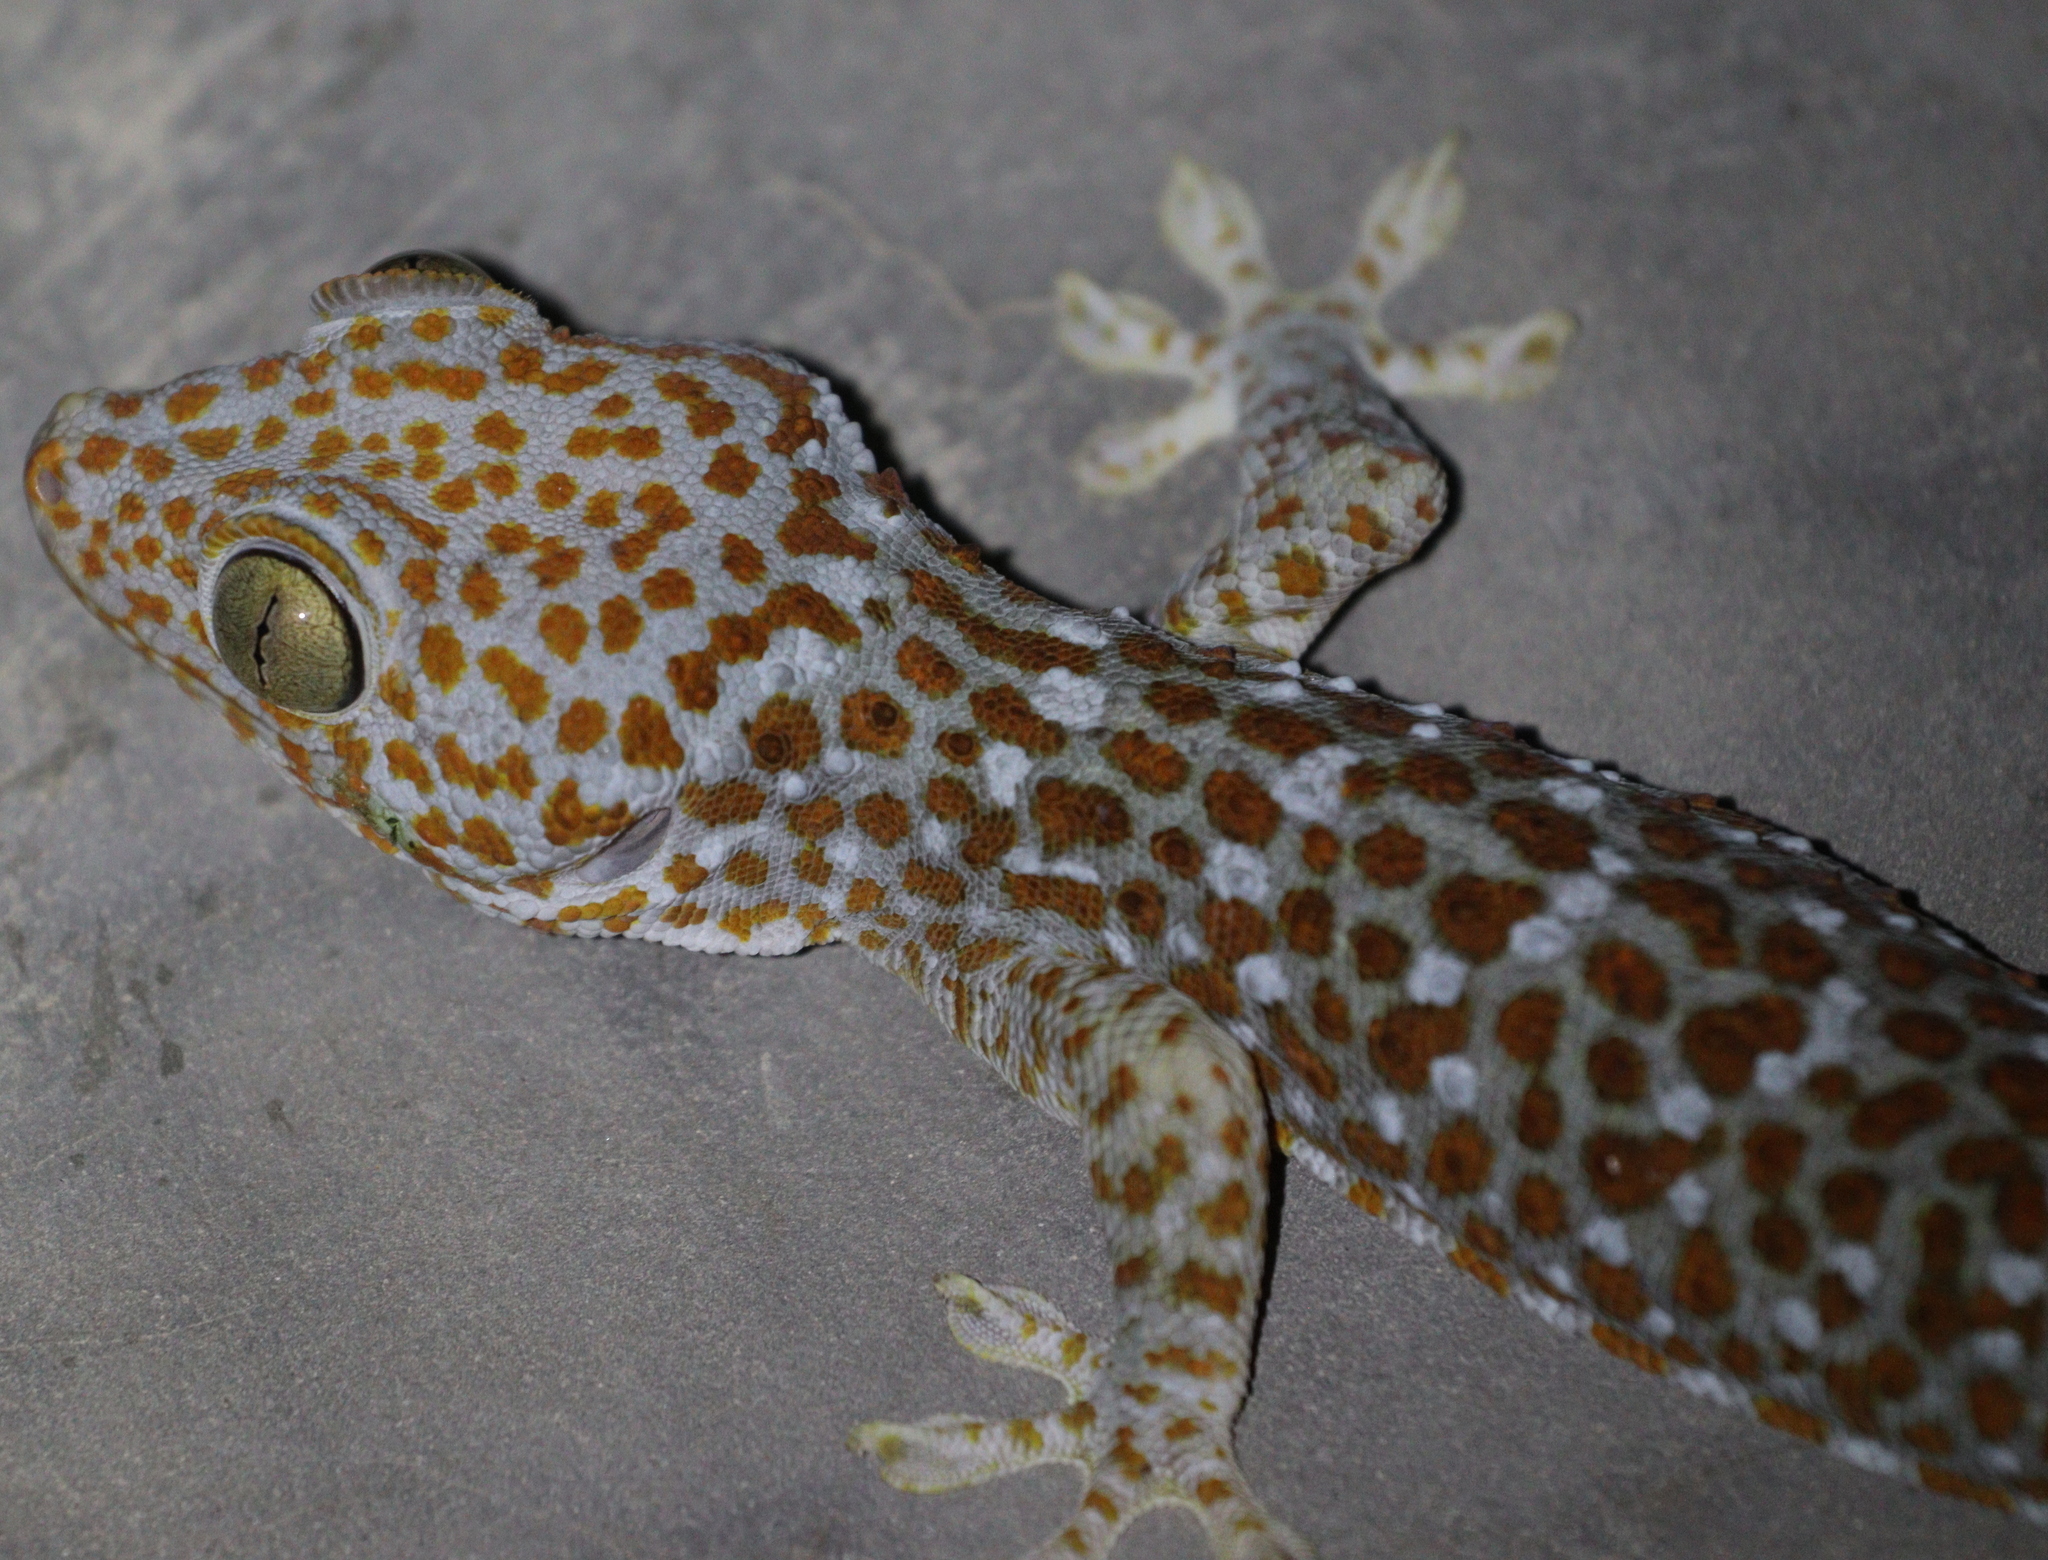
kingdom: Animalia
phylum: Chordata
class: Squamata
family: Gekkonidae
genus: Gekko
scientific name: Gekko gecko
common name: Tokay gecko
